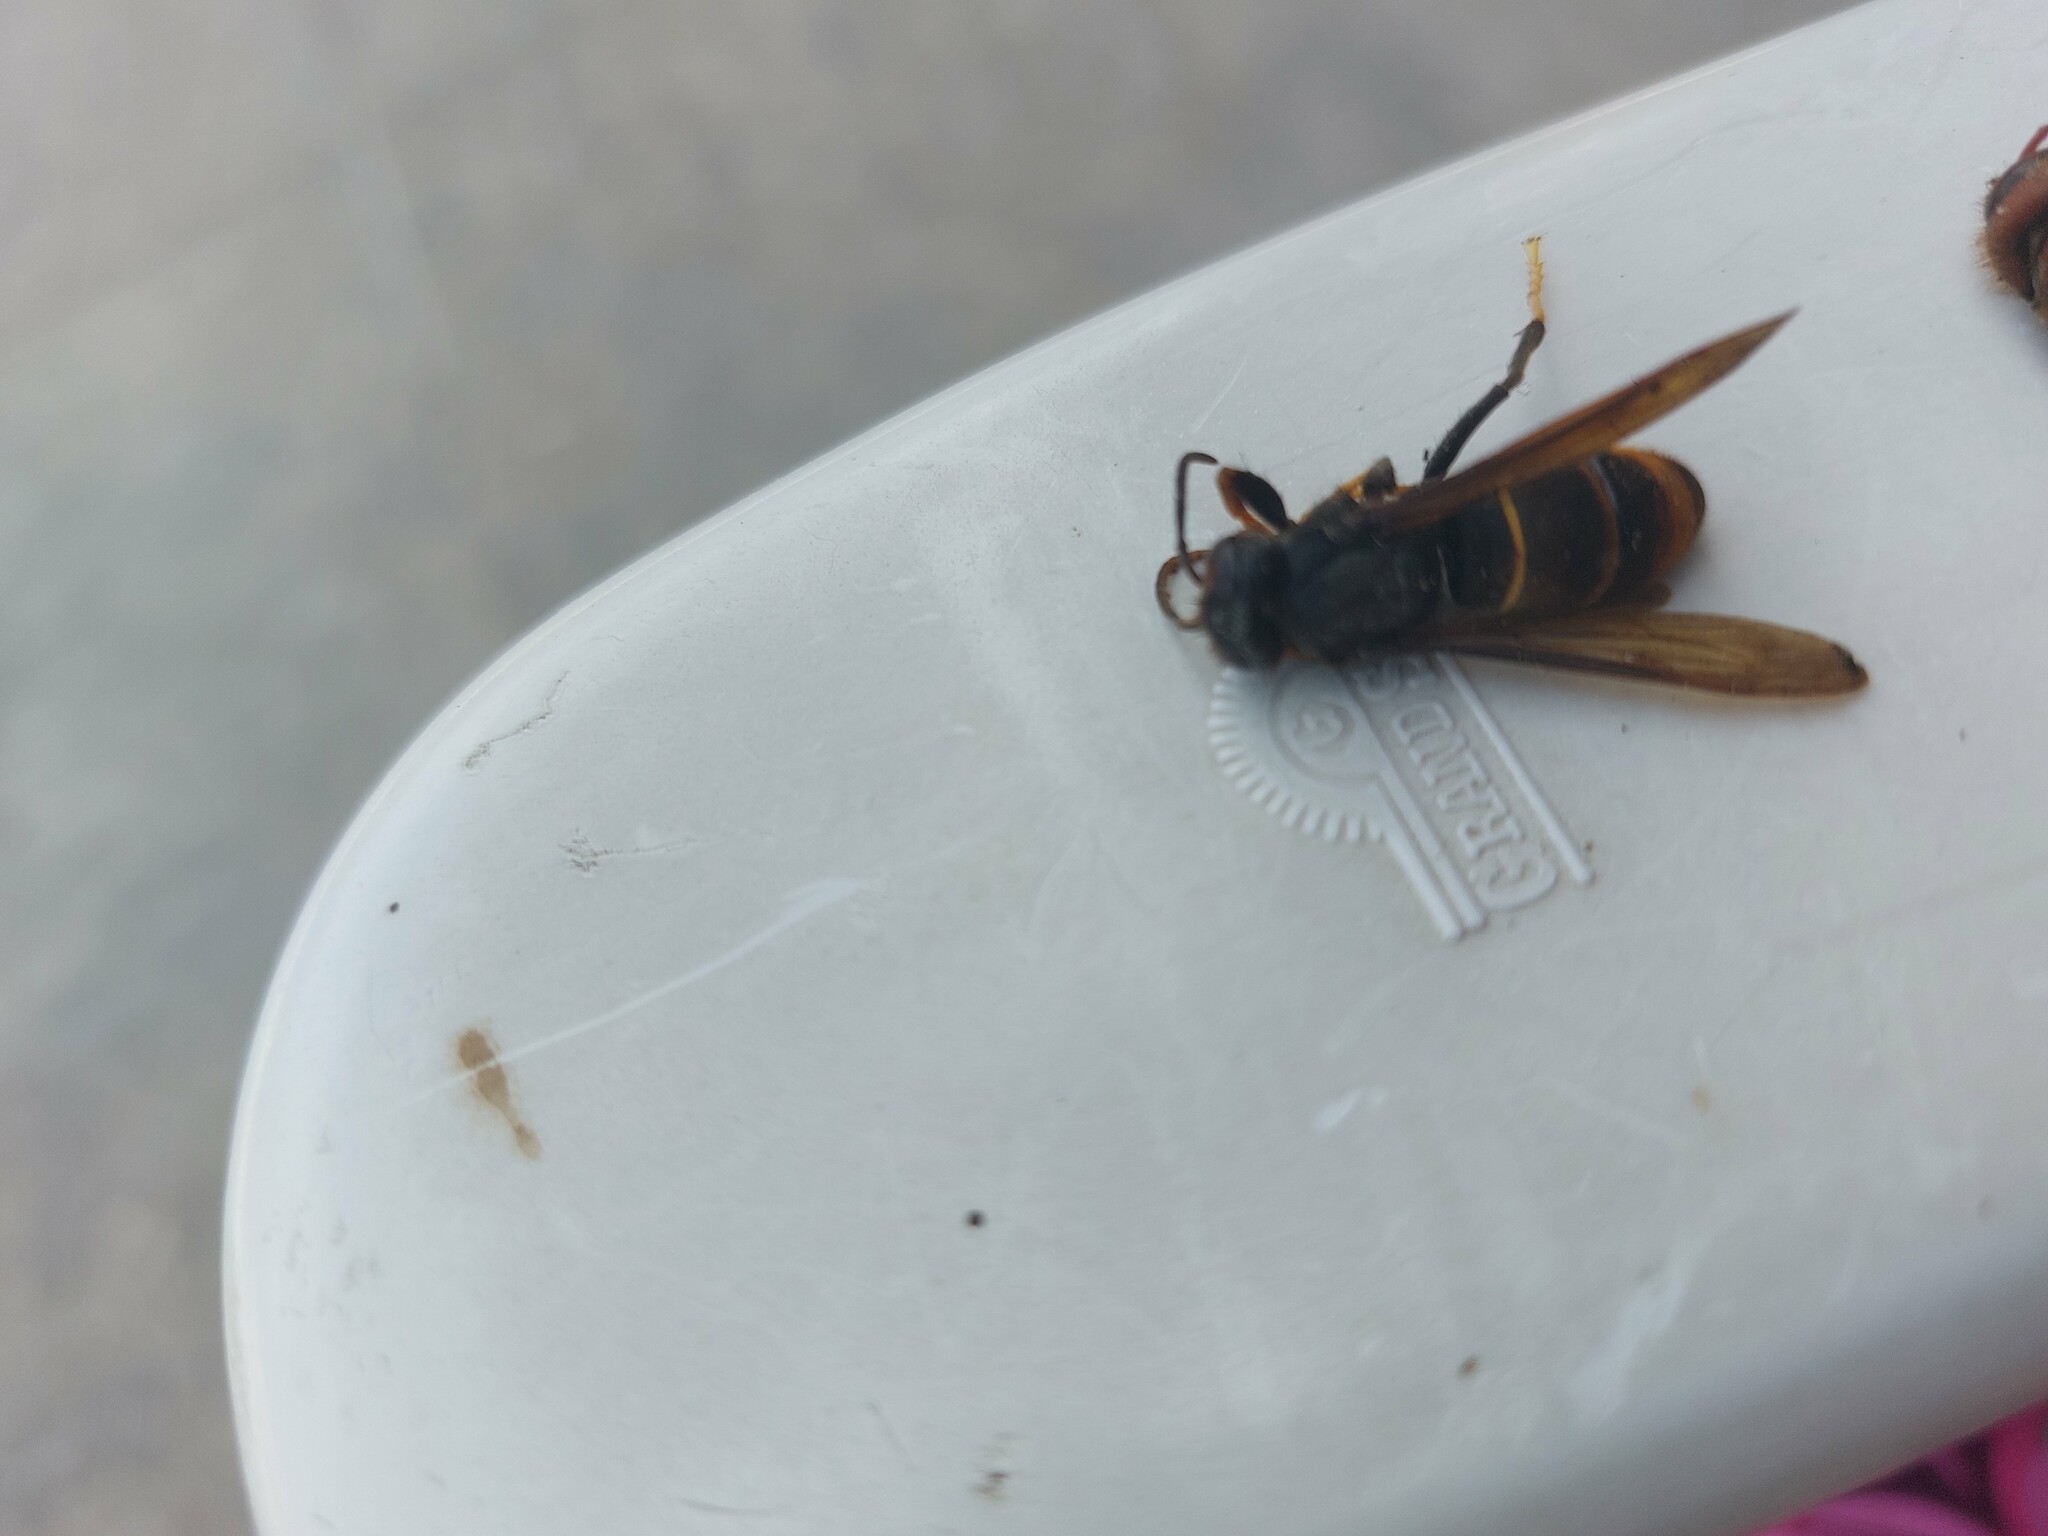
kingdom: Animalia
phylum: Arthropoda
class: Insecta
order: Hymenoptera
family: Vespidae
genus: Vespa
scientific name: Vespa velutina
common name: Asian hornet
